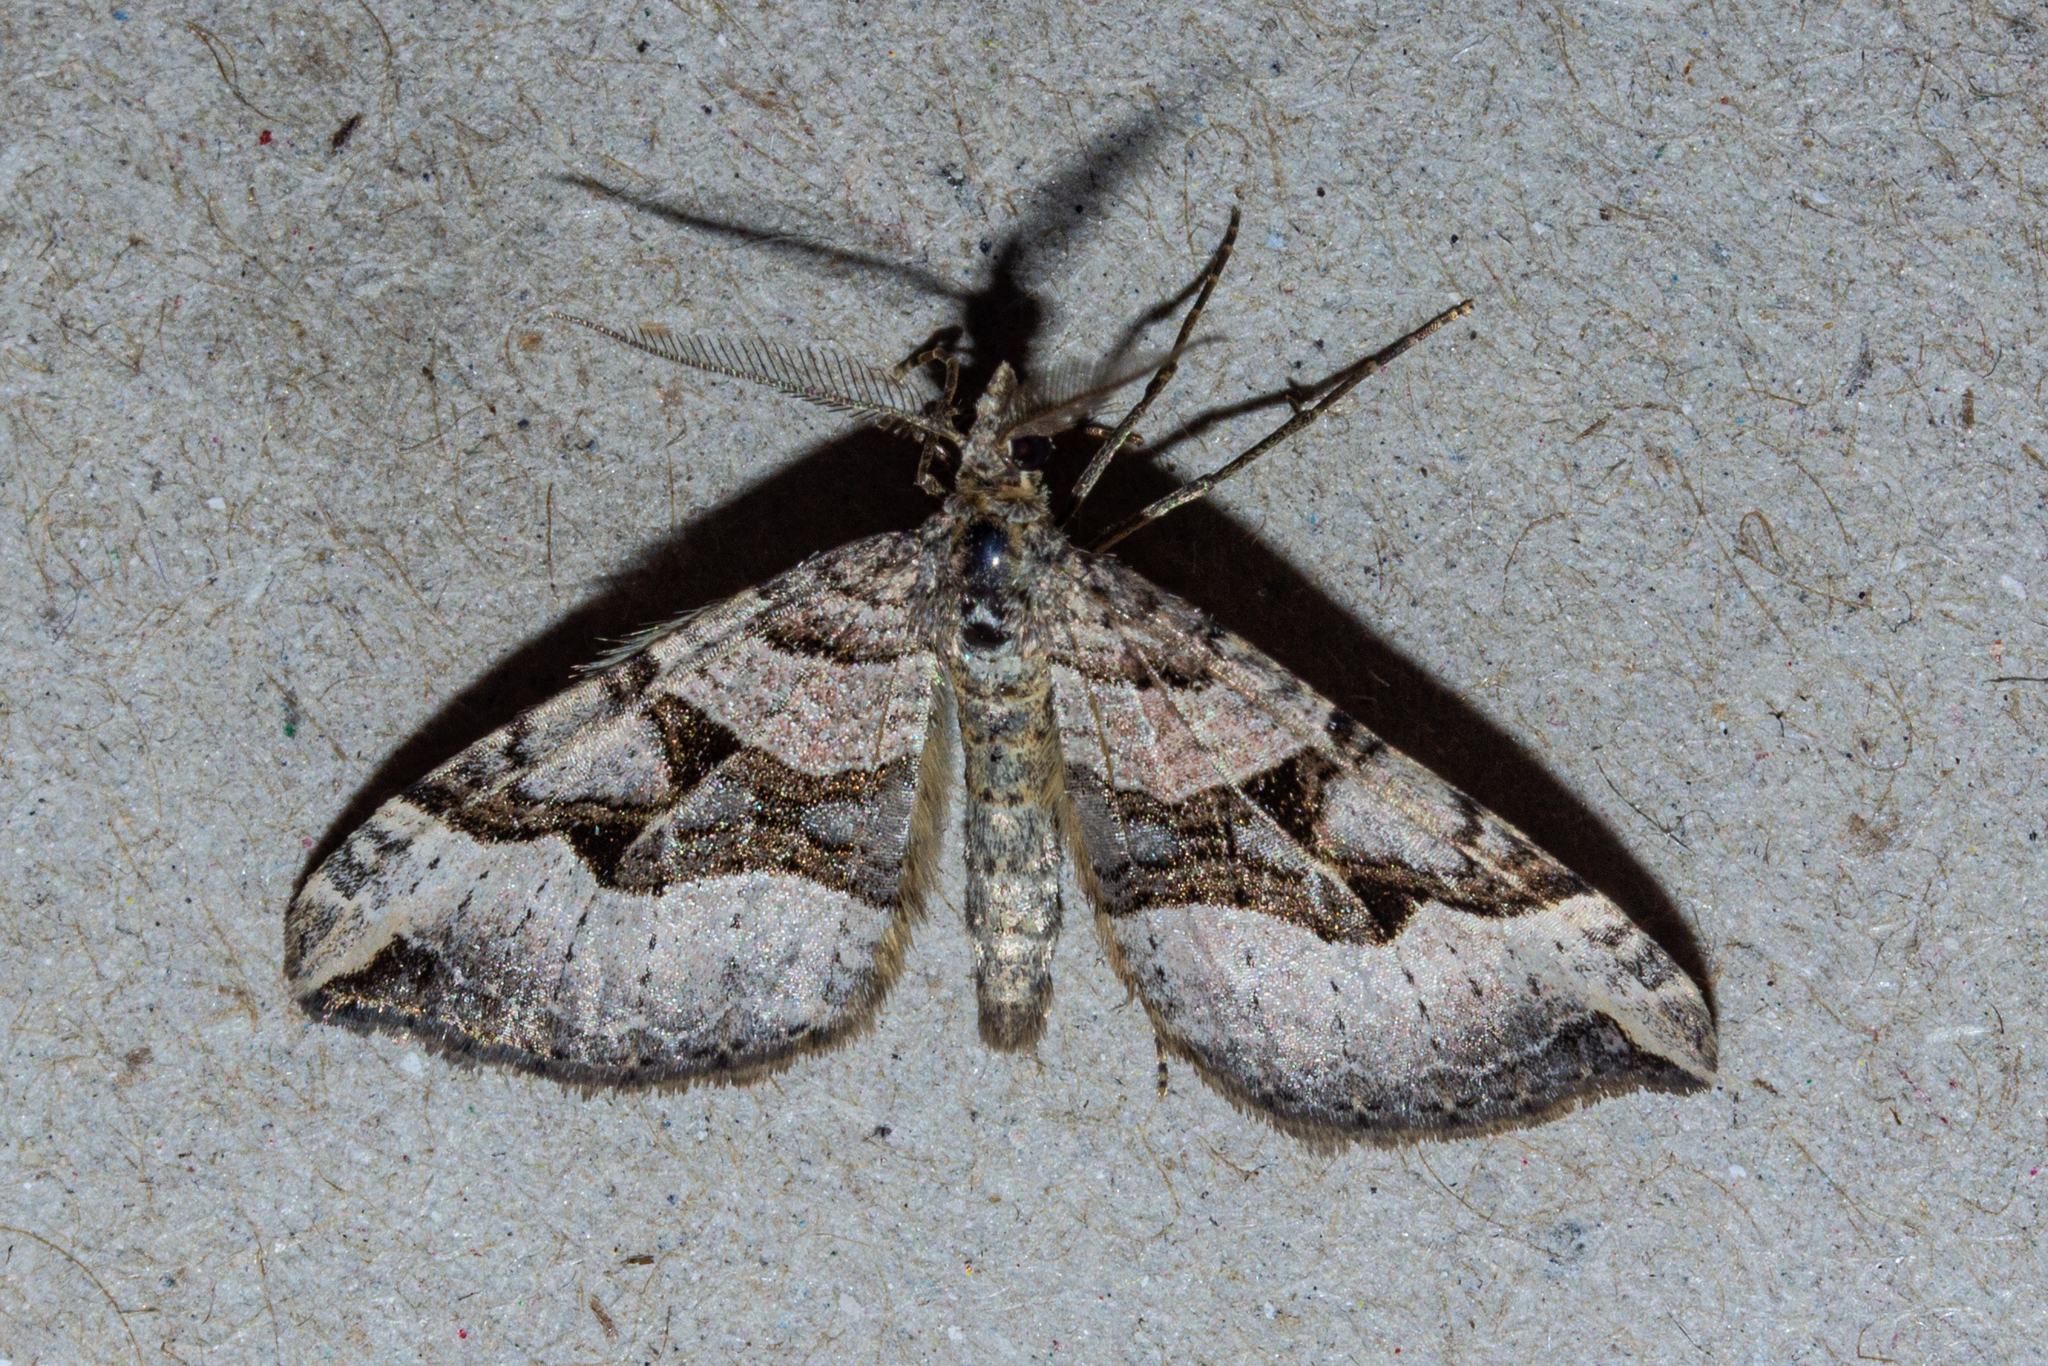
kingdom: Animalia
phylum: Arthropoda
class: Insecta
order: Lepidoptera
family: Geometridae
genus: Xanthorhoe
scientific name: Xanthorhoe semifissata
